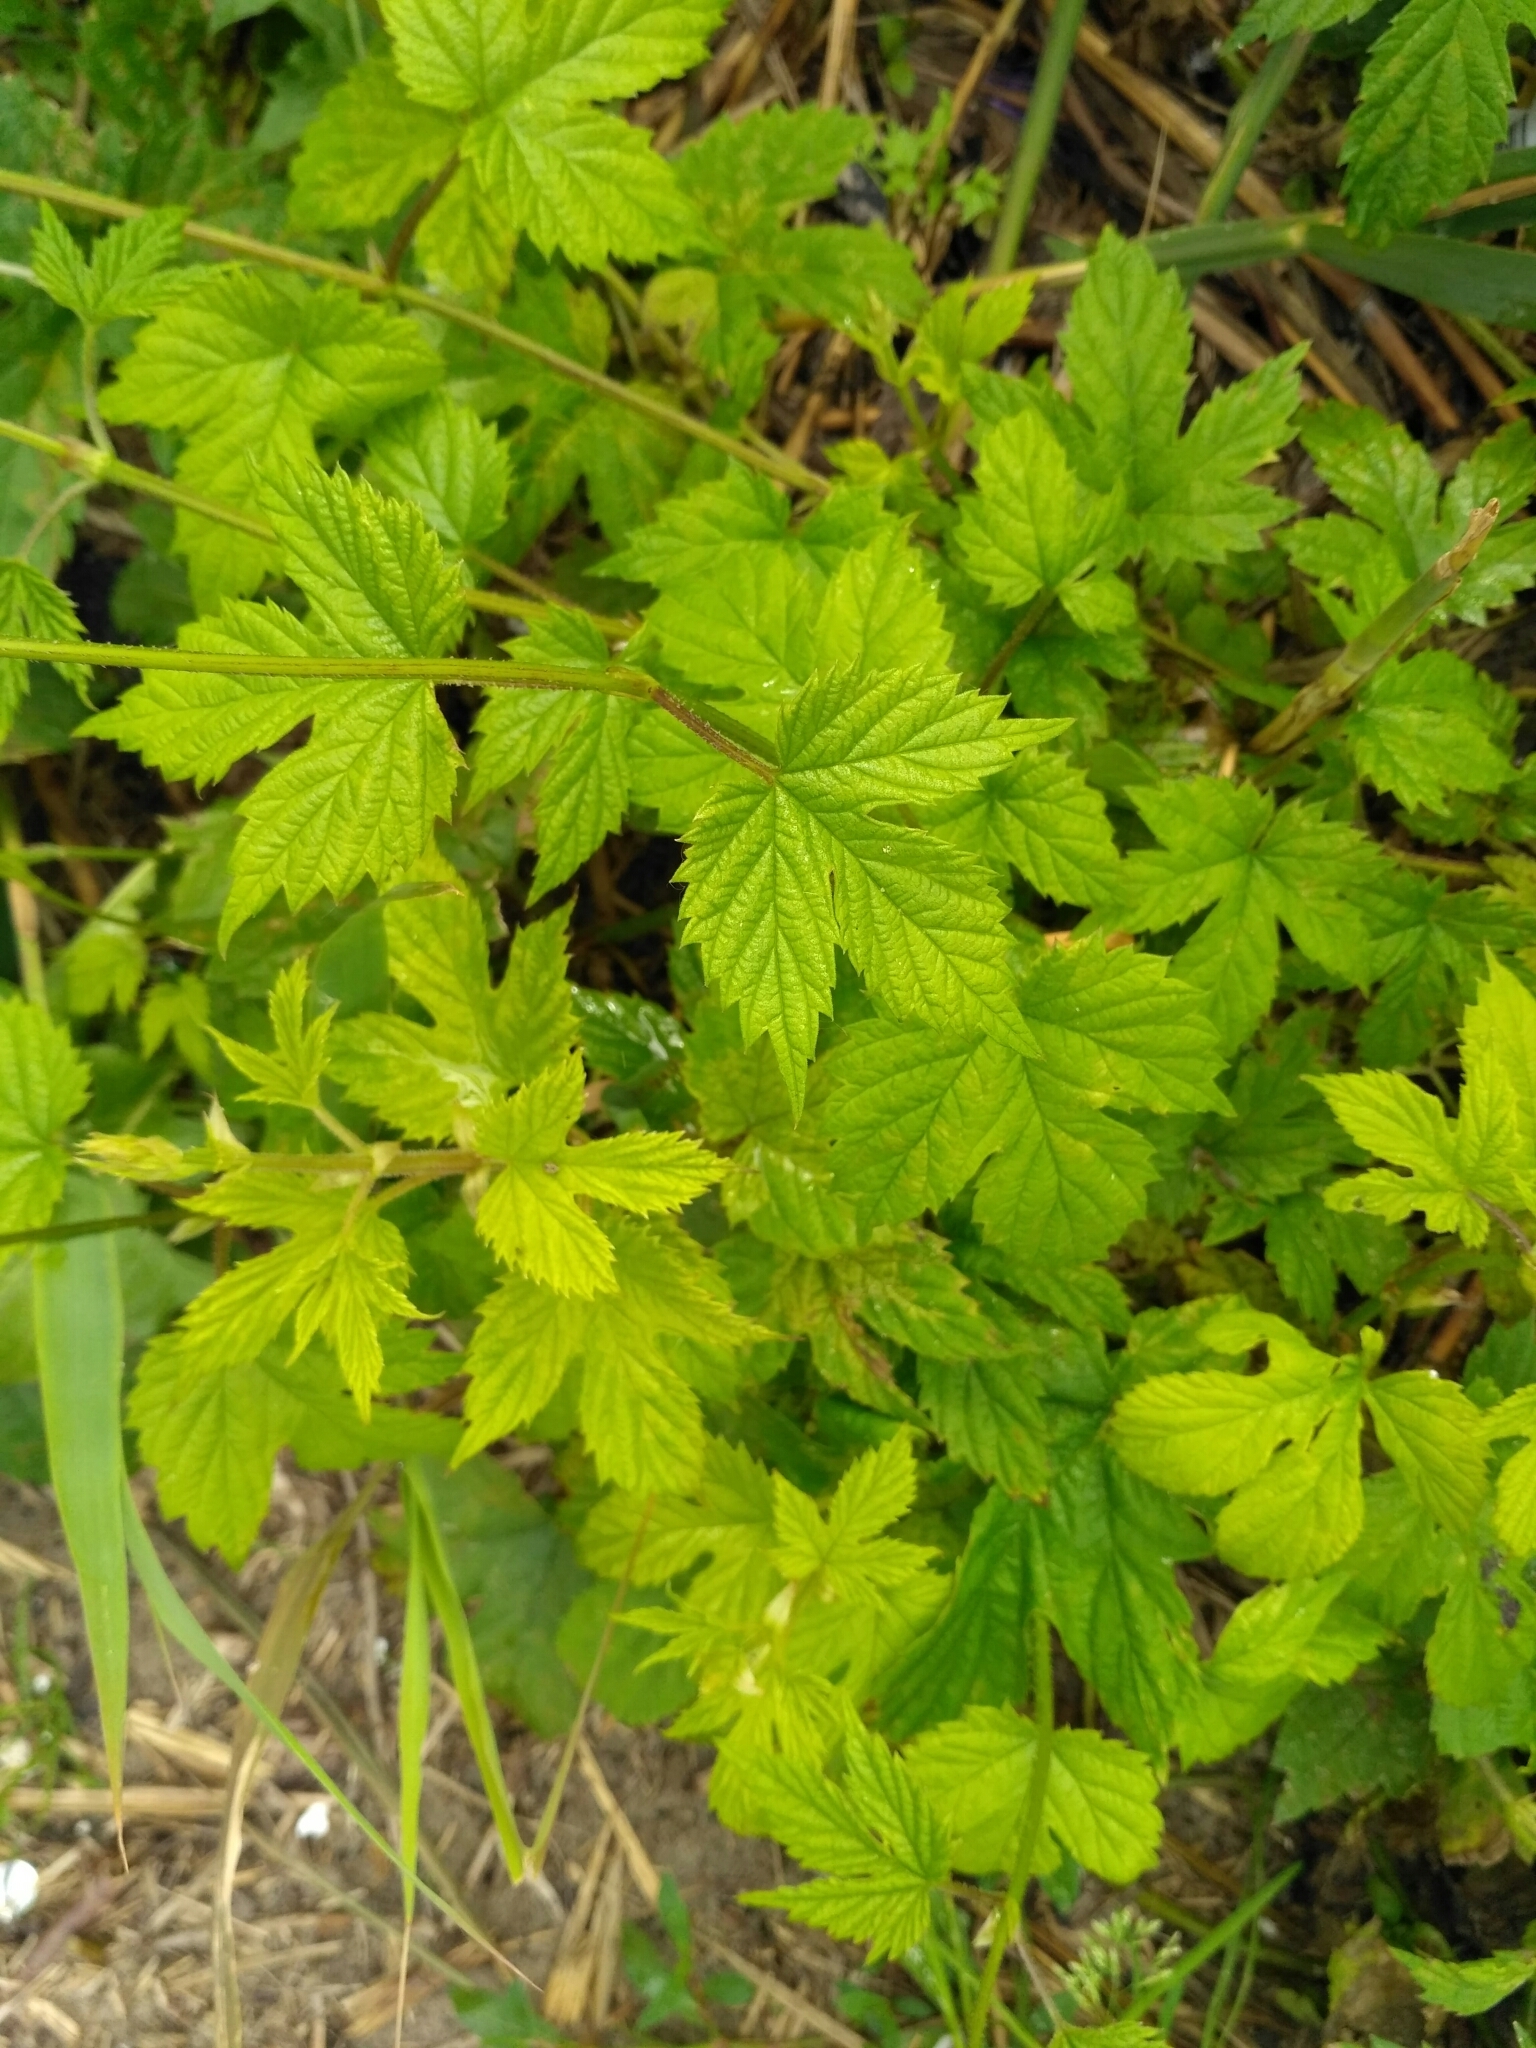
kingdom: Plantae
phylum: Tracheophyta
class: Magnoliopsida
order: Rosales
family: Cannabaceae
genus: Humulus
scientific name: Humulus lupulus
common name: Hop
